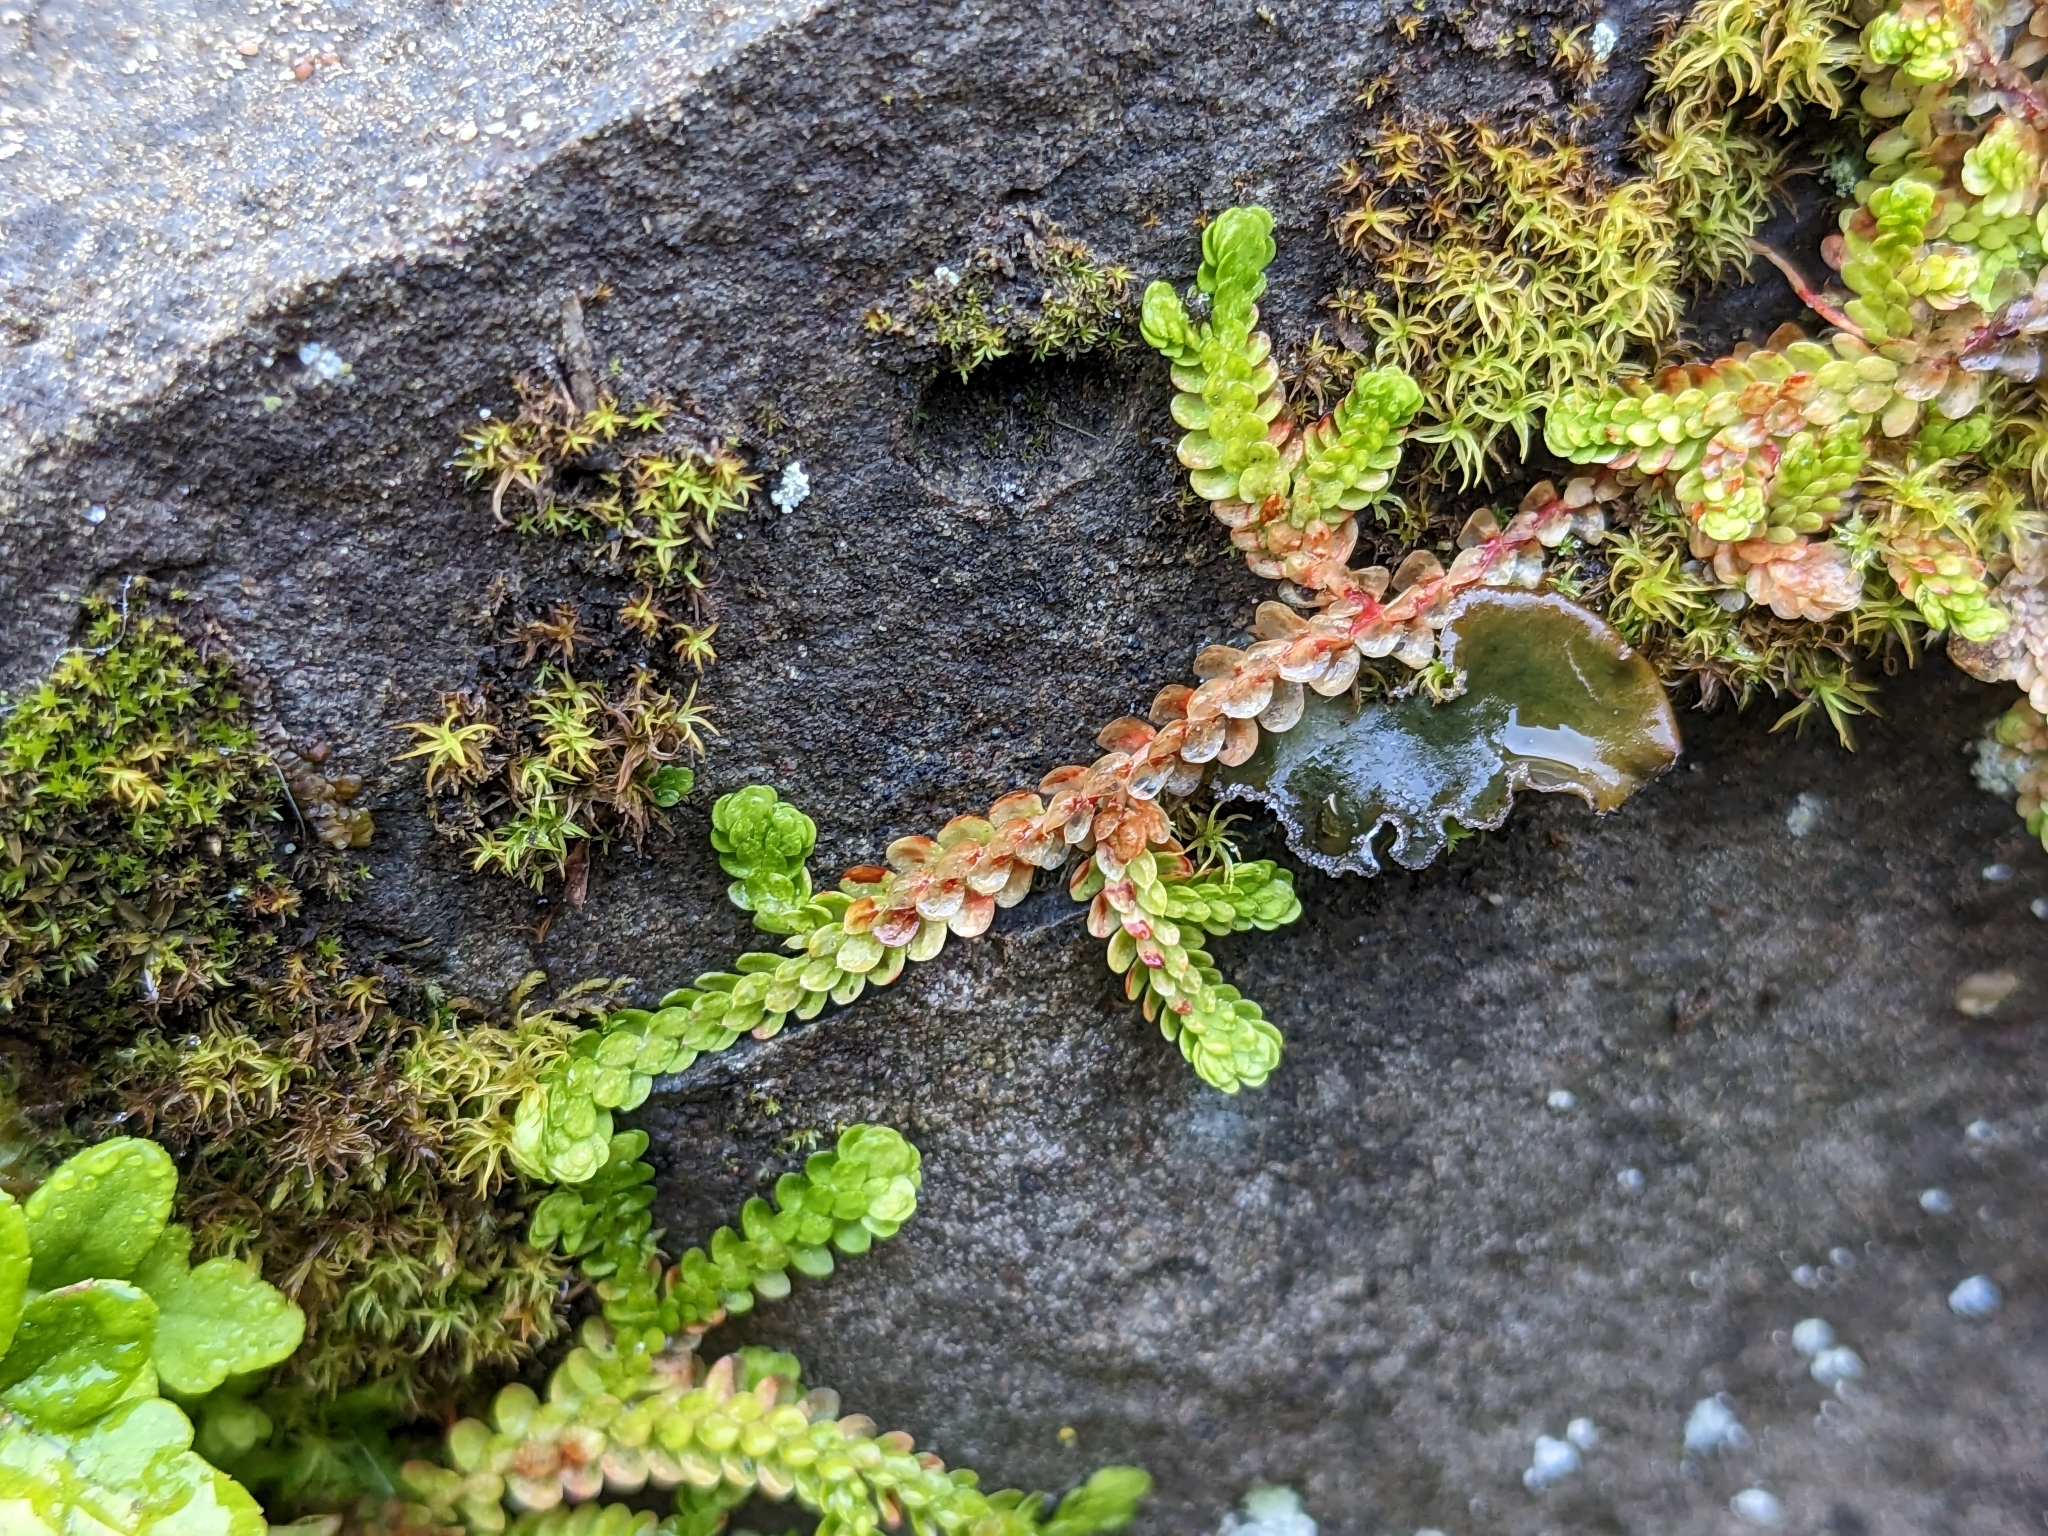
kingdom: Plantae
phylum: Tracheophyta
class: Lycopodiopsida
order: Selaginellales
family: Selaginellaceae
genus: Selaginella
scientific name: Selaginella douglasii
